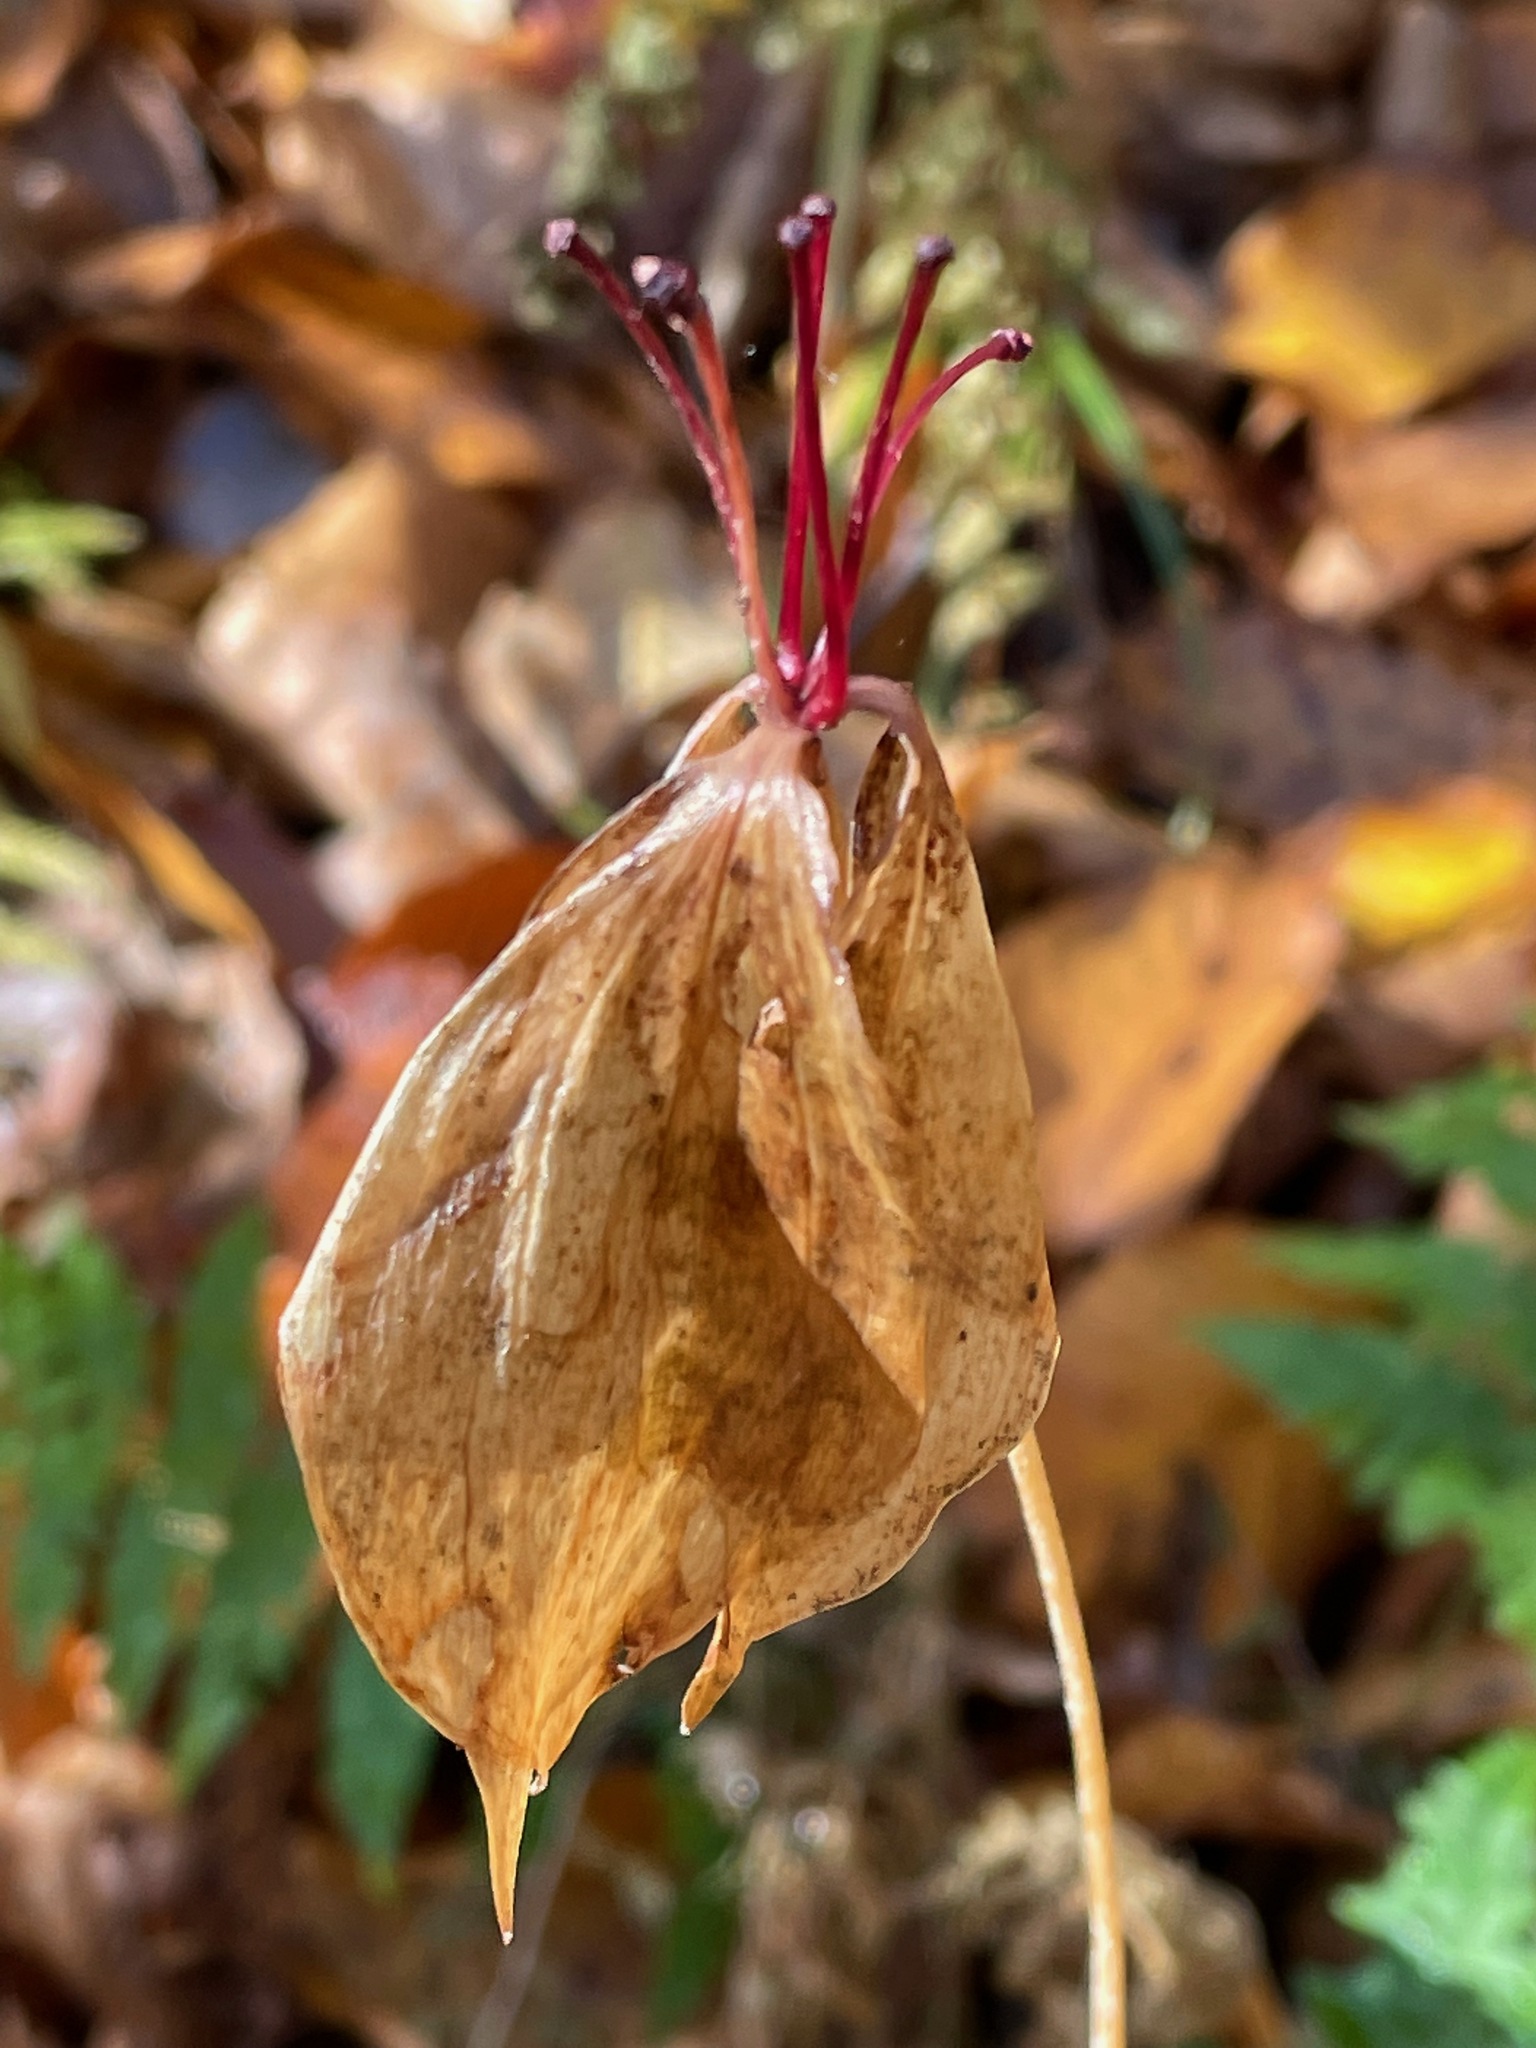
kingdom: Plantae
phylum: Tracheophyta
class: Liliopsida
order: Liliales
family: Liliaceae
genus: Medeola
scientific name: Medeola virginiana
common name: Indian cucumber-root
